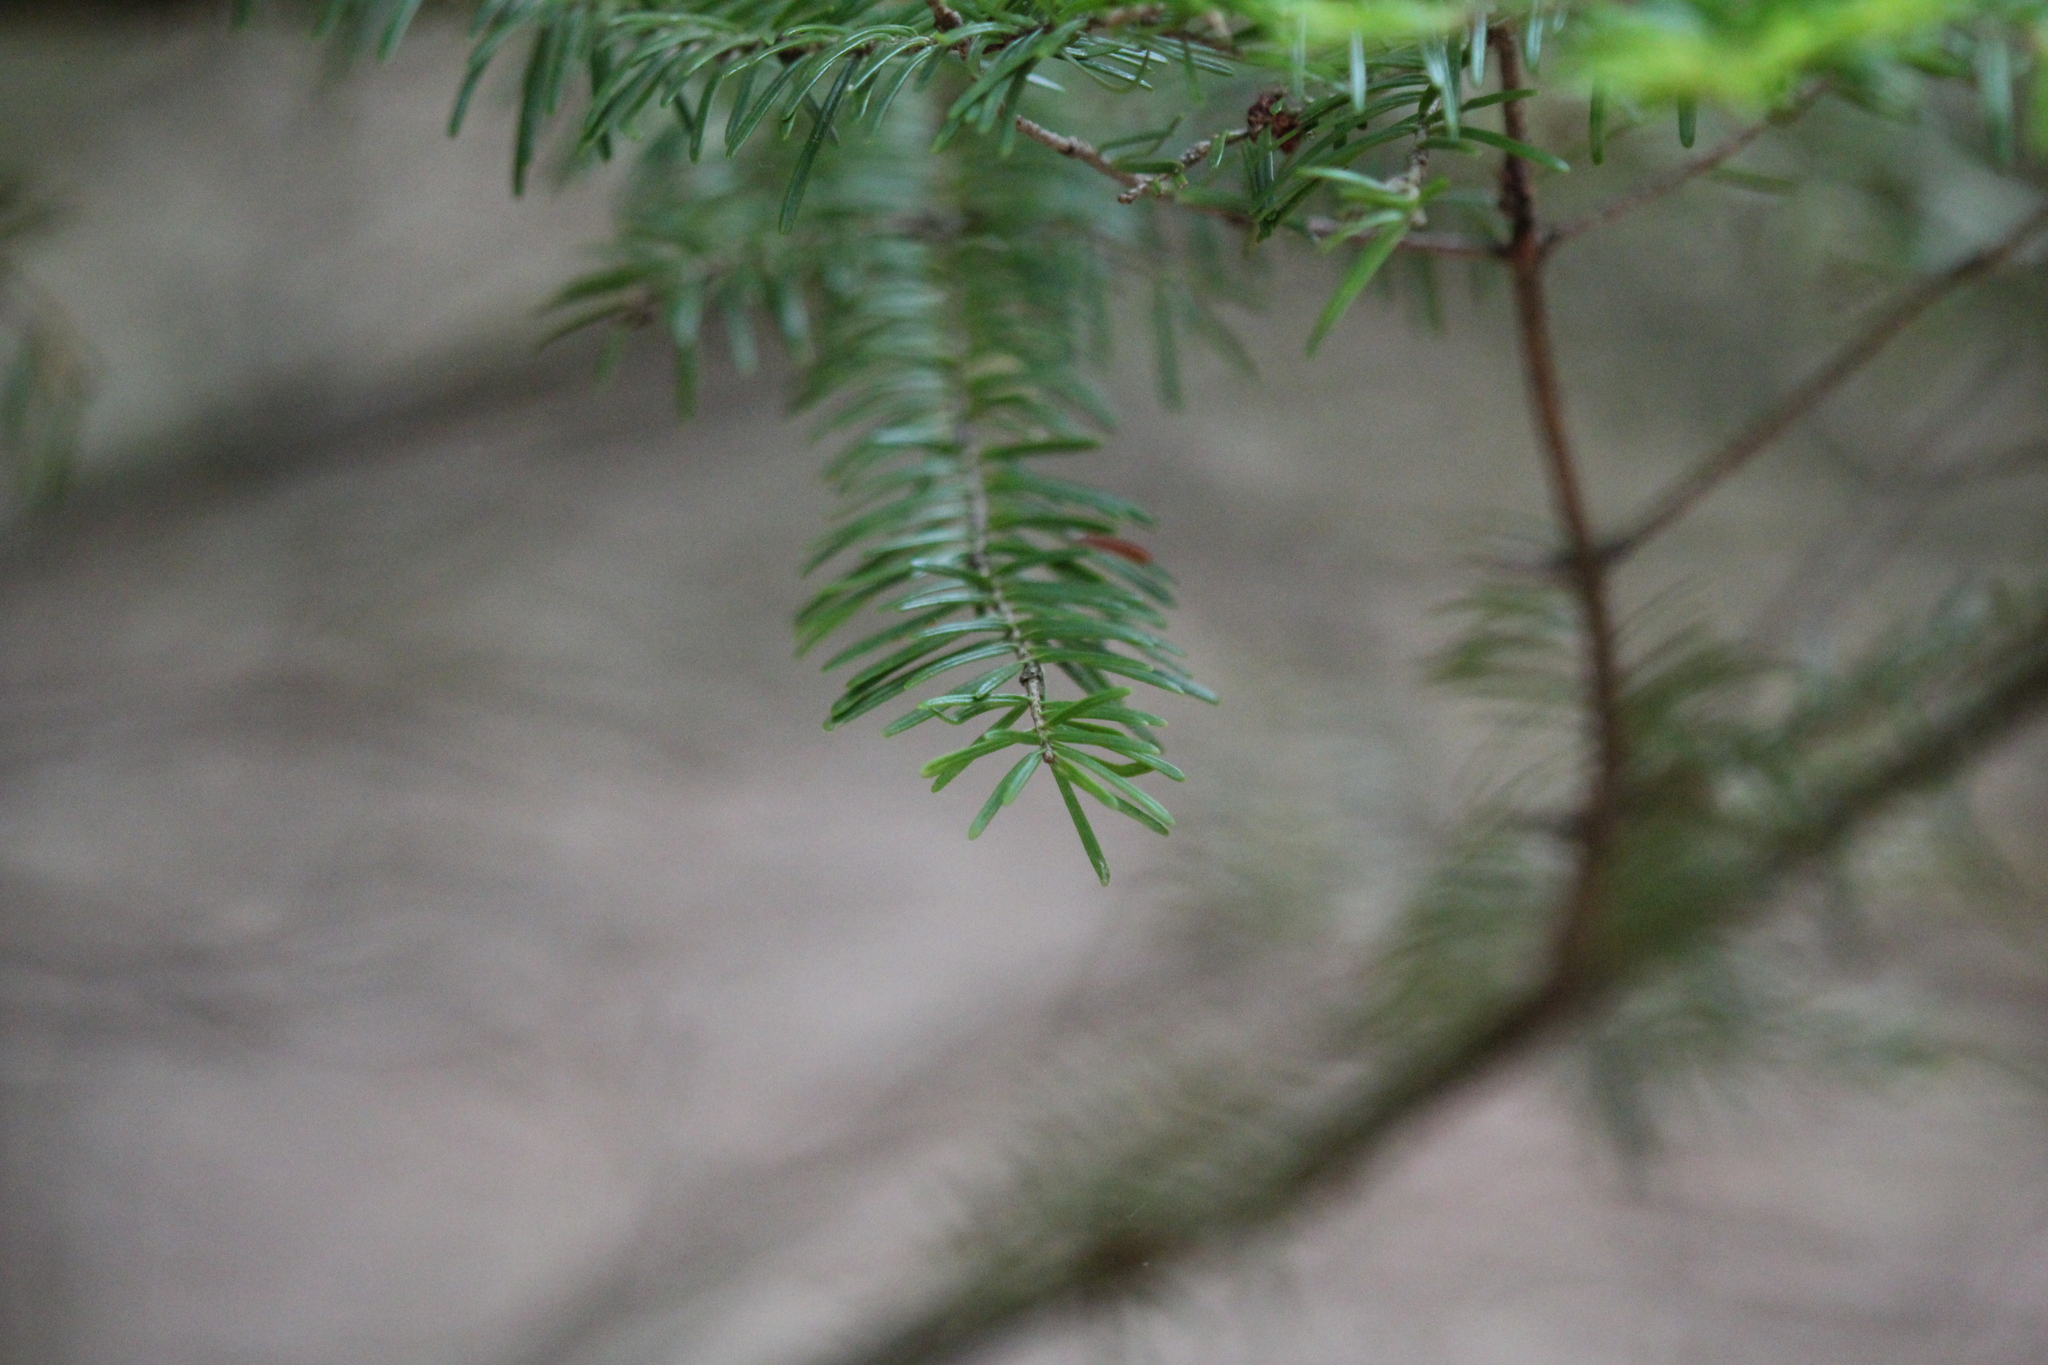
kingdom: Plantae
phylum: Tracheophyta
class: Pinopsida
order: Pinales
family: Pinaceae
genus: Abies
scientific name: Abies balsamea
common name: Balsam fir
